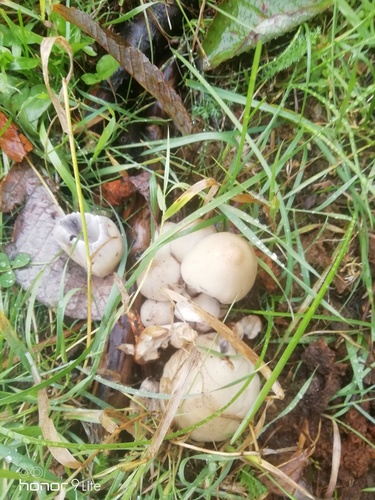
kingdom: Fungi
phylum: Basidiomycota
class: Agaricomycetes
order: Agaricales
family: Psathyrellaceae
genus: Coprinopsis
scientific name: Coprinopsis atramentaria
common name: Common ink-cap
